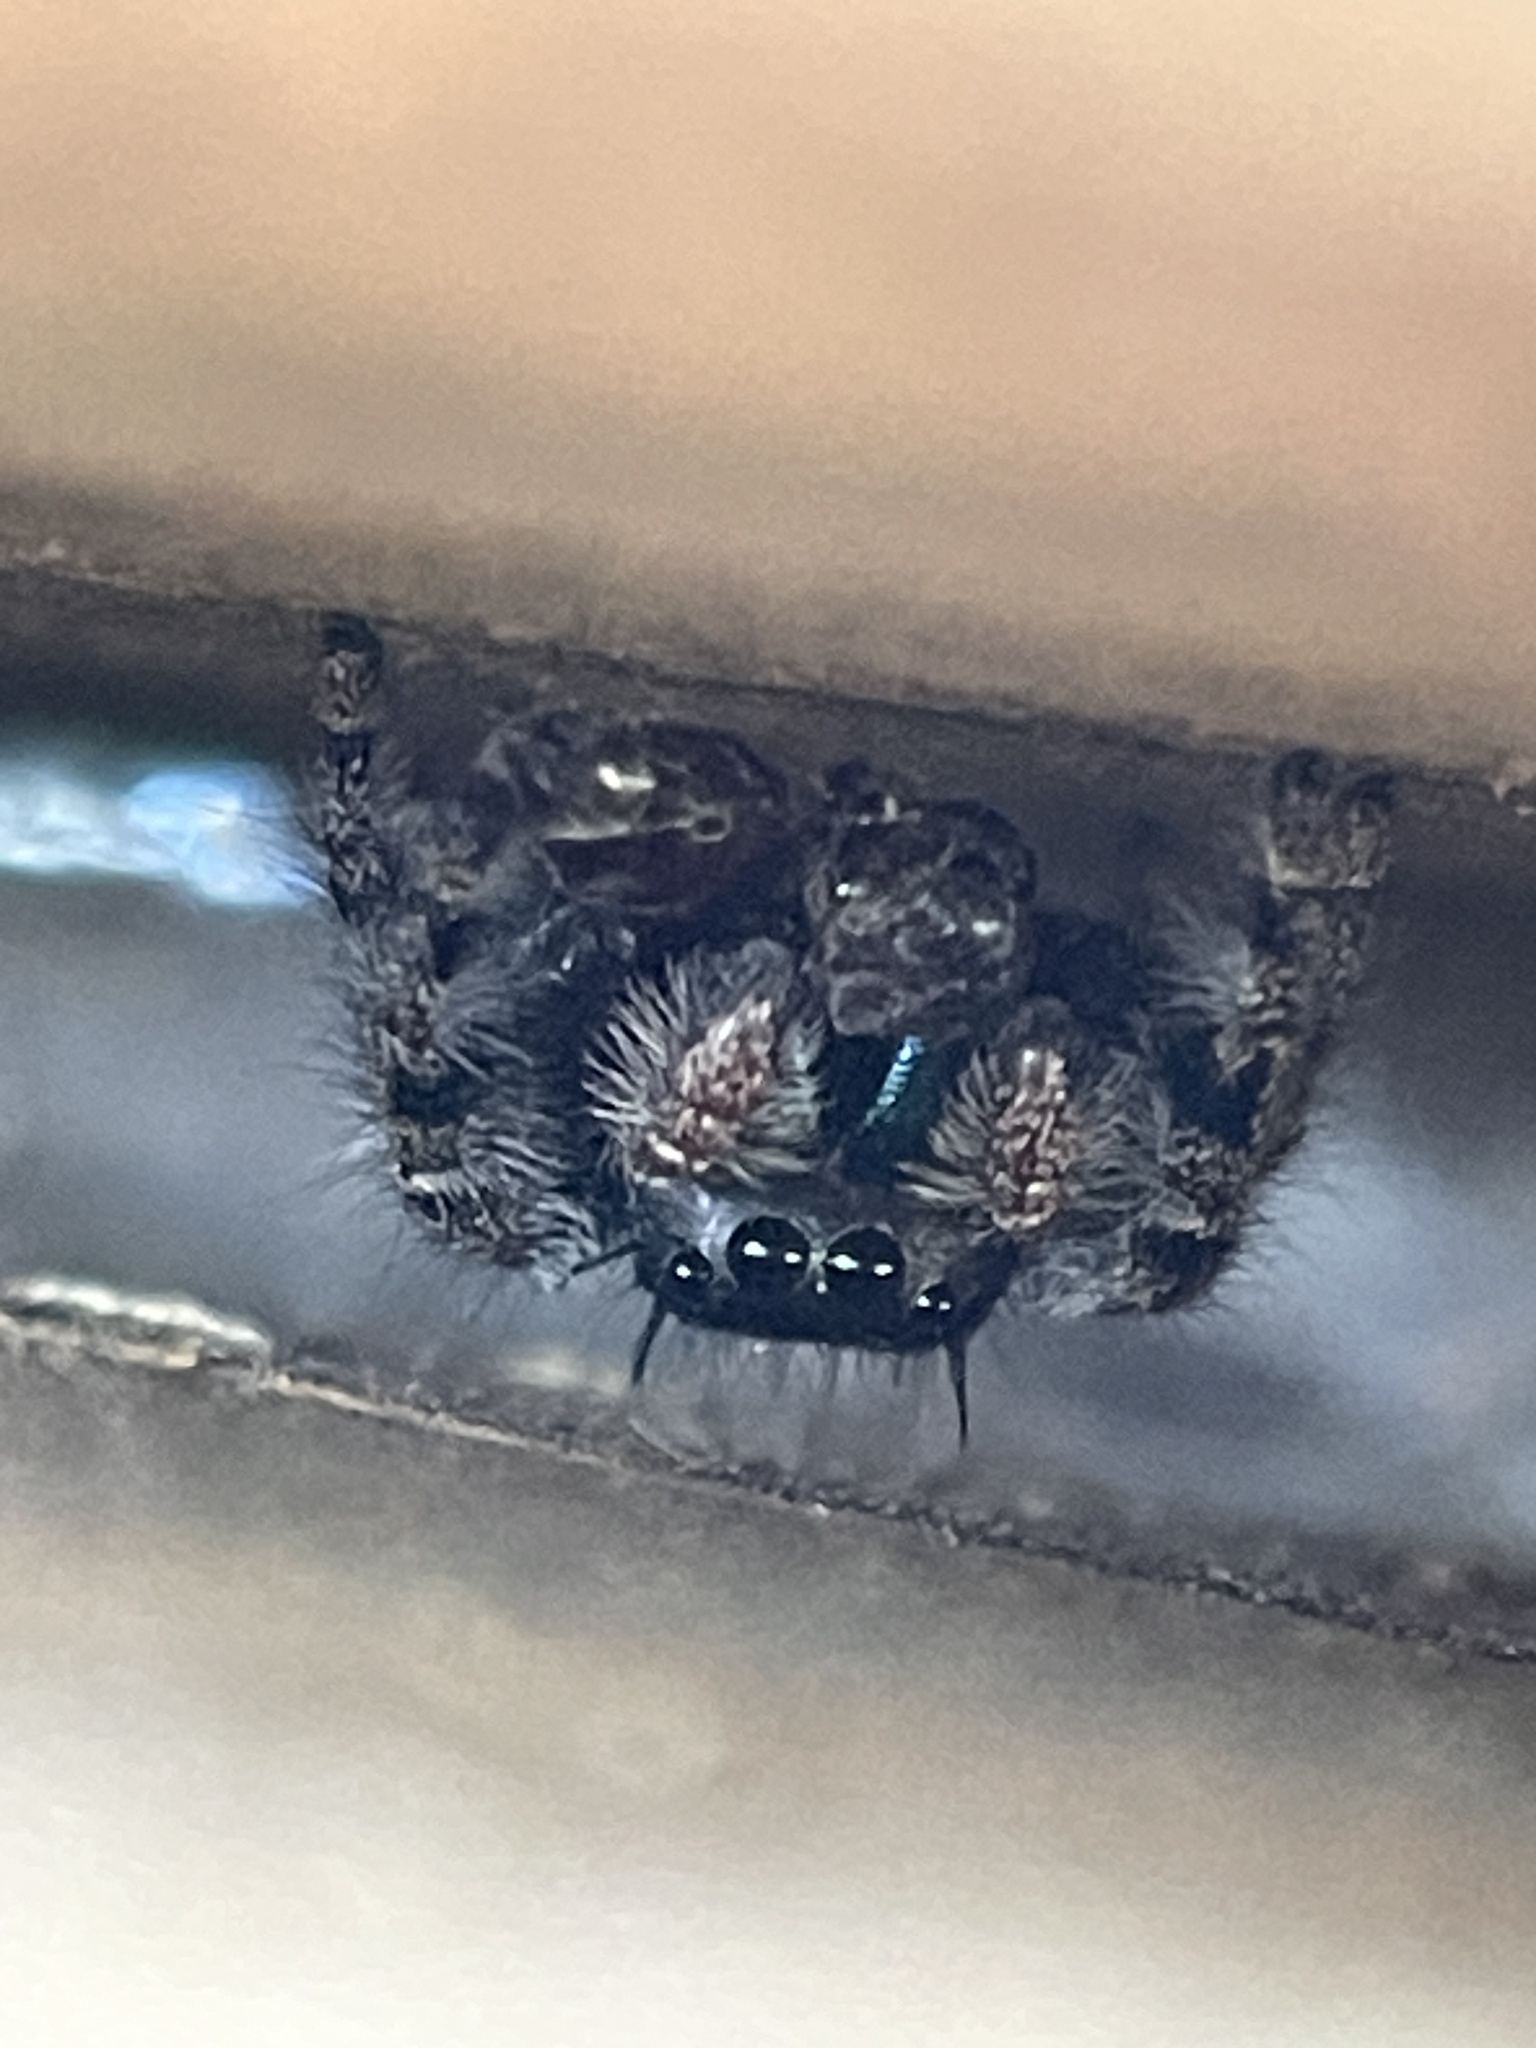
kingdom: Animalia
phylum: Arthropoda
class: Arachnida
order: Araneae
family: Salticidae
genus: Phidippus
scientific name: Phidippus audax
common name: Bold jumper
